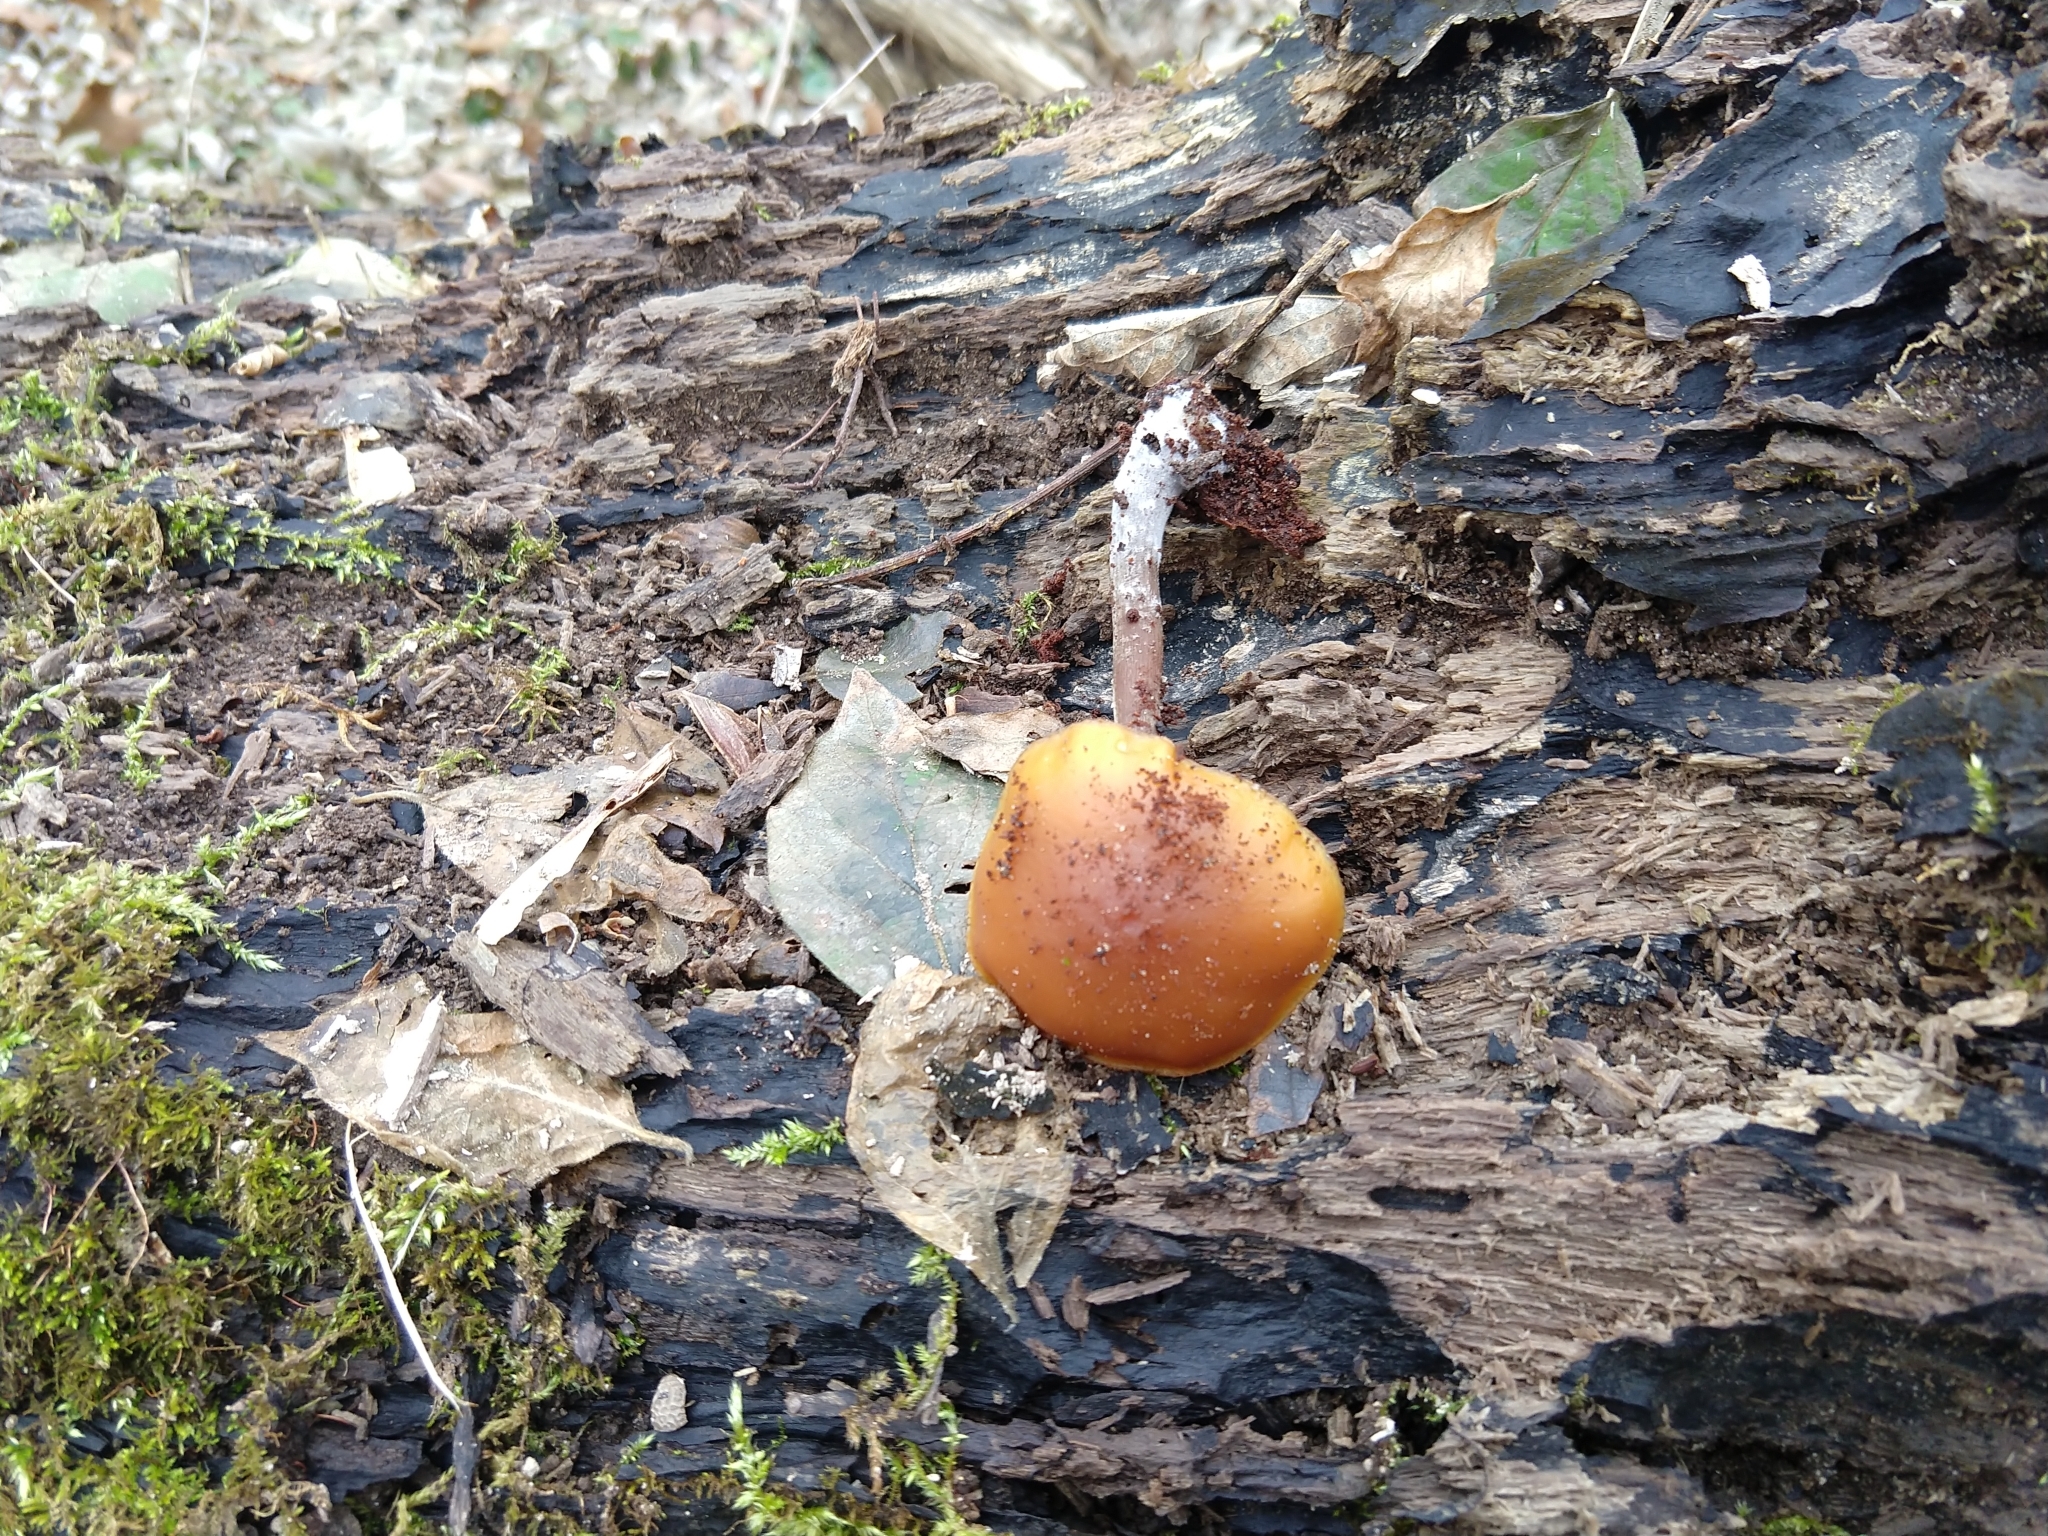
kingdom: Fungi
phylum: Basidiomycota
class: Agaricomycetes
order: Agaricales
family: Hymenogastraceae
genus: Galerina
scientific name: Galerina marginata
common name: Funeral bell
